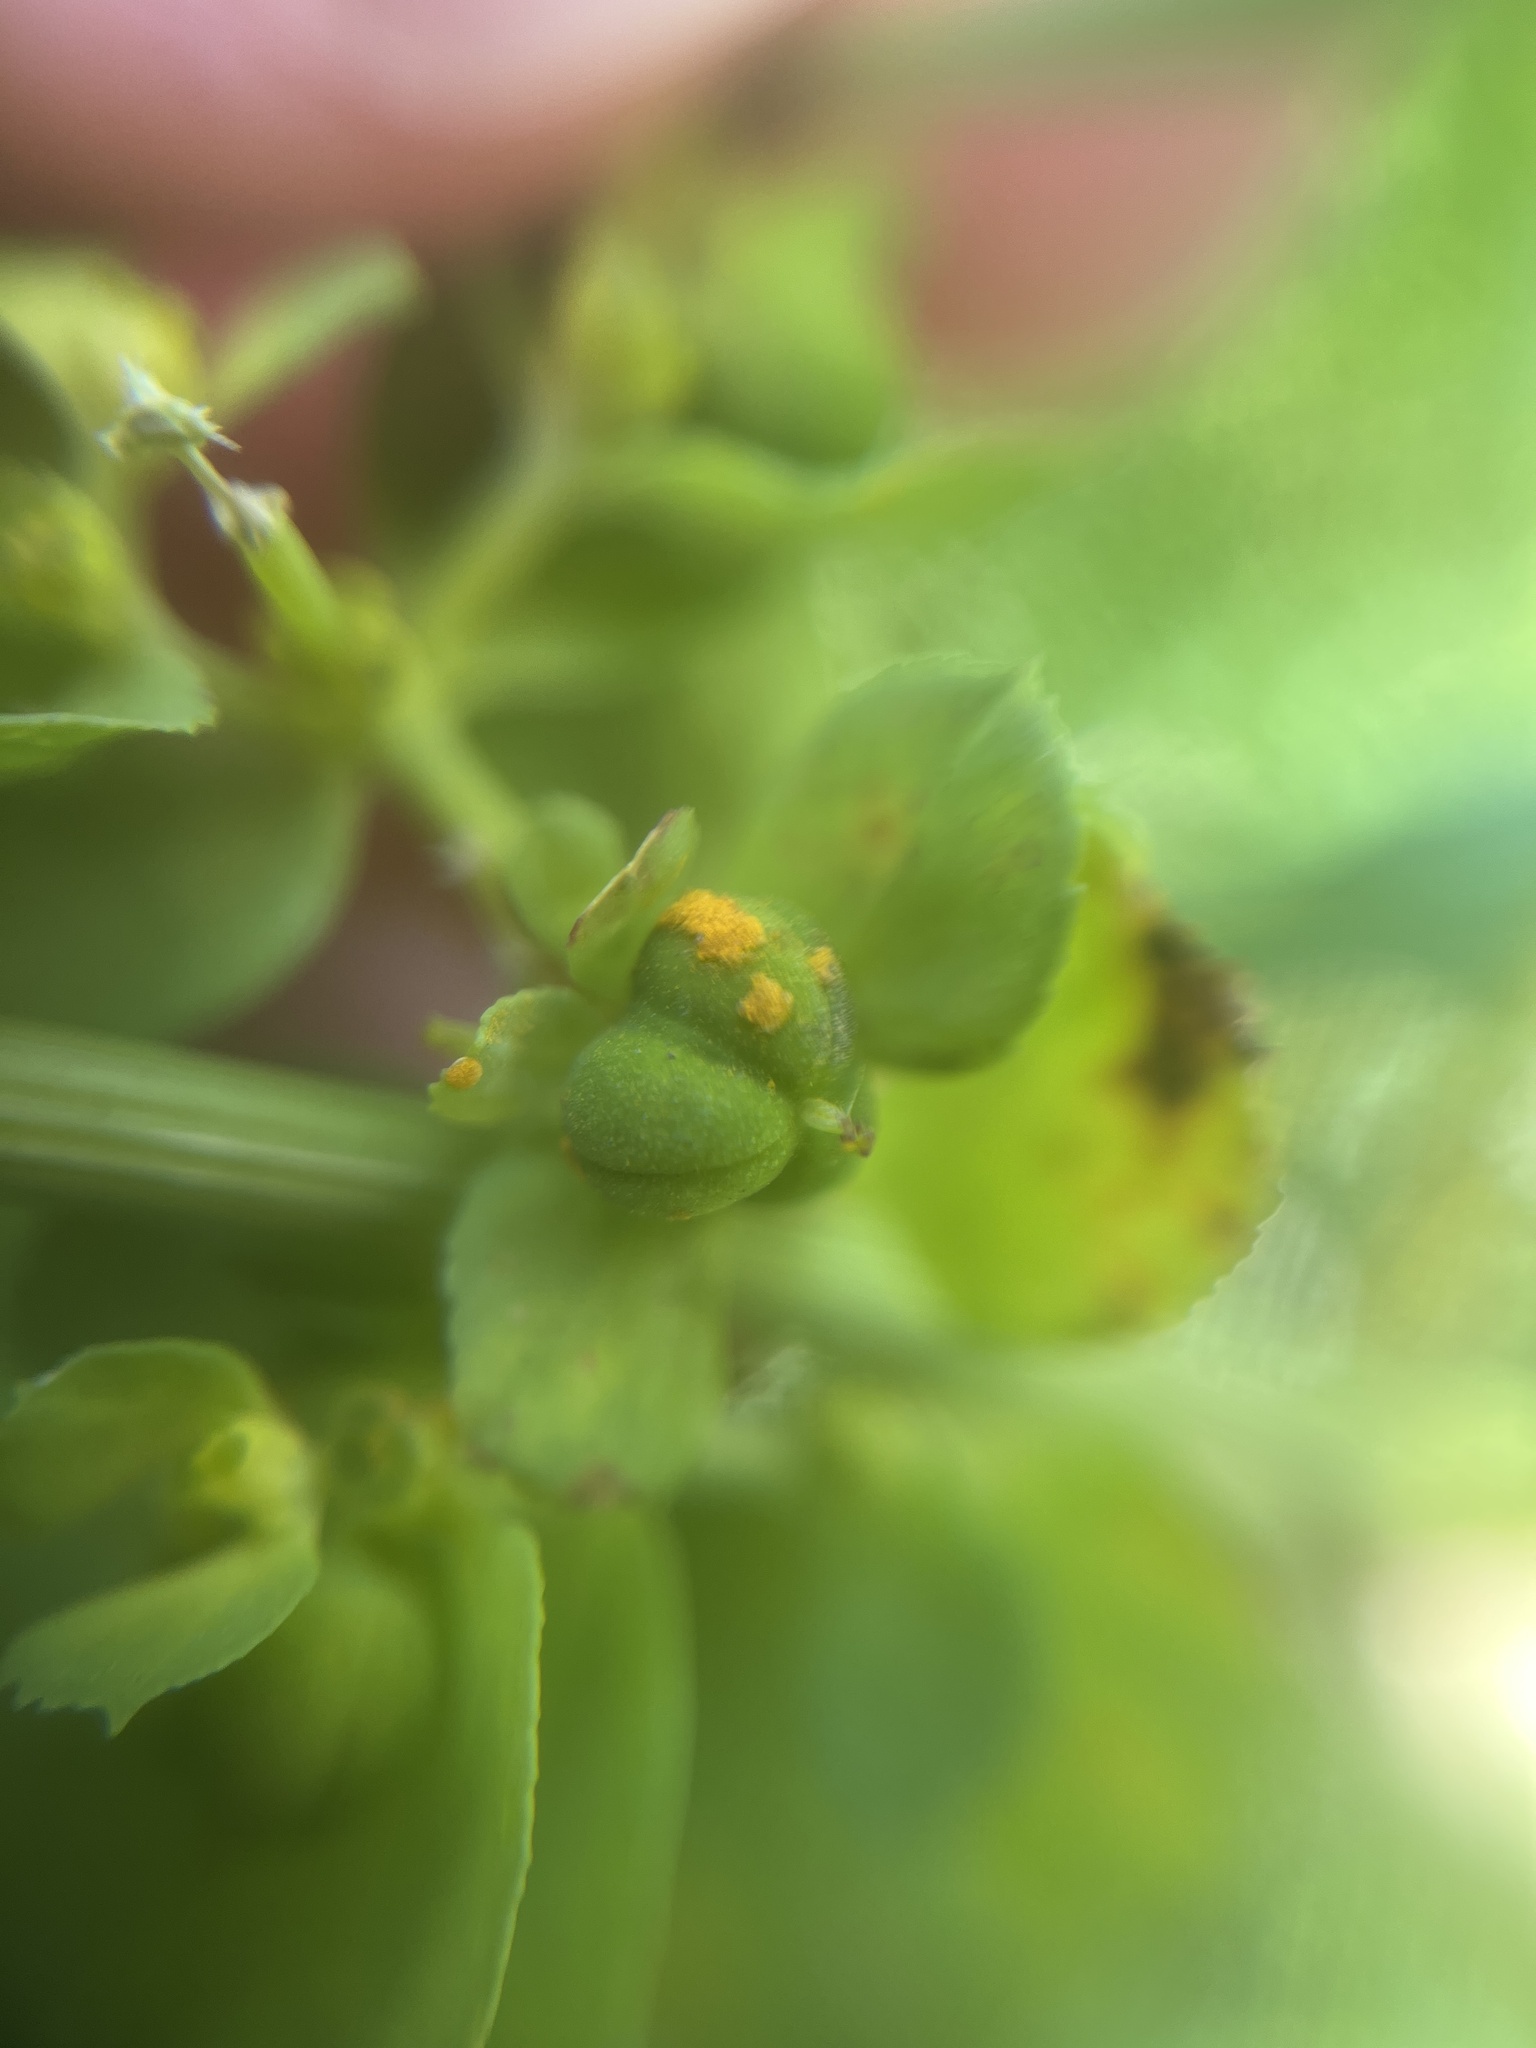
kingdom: Fungi
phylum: Basidiomycota
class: Pucciniomycetes
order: Pucciniales
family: Melampsoraceae
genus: Melampsora
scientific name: Melampsora euphorbiae
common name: Spurge rust
